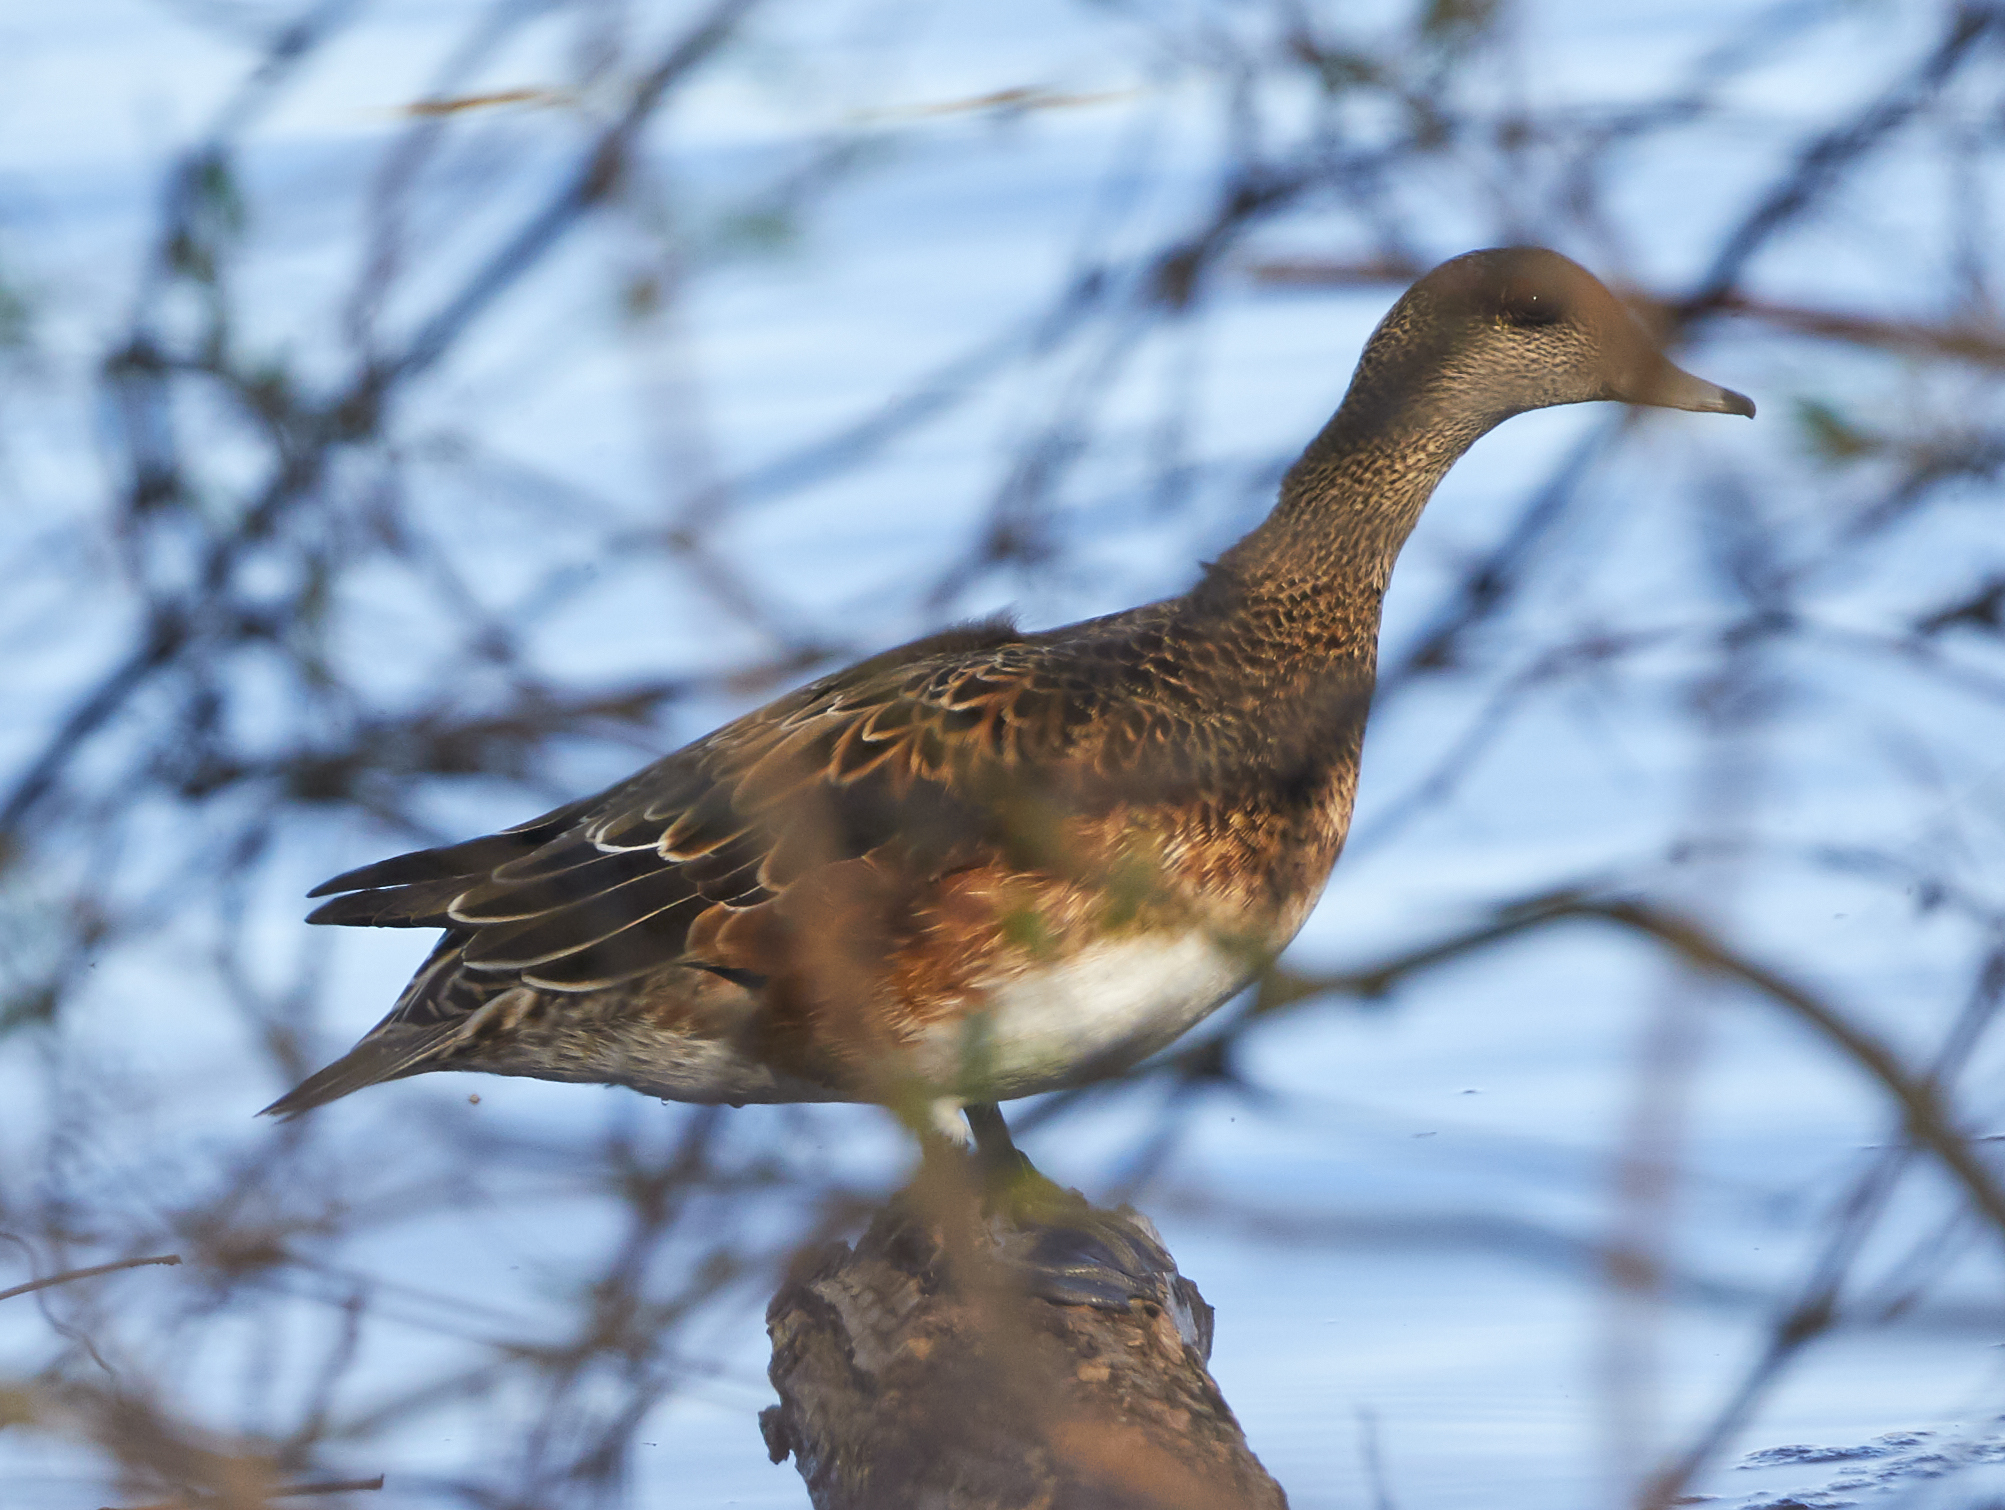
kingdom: Animalia
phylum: Chordata
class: Aves
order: Anseriformes
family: Anatidae
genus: Mareca
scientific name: Mareca americana
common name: American wigeon
